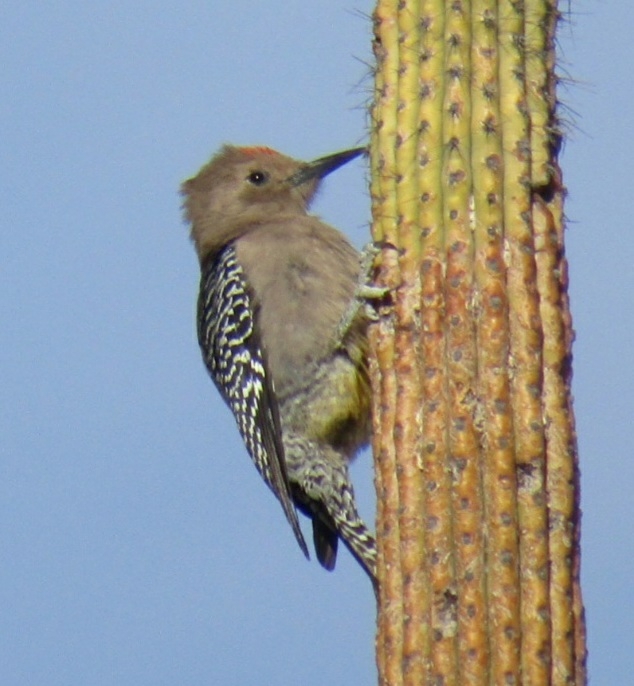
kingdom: Animalia
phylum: Chordata
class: Aves
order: Piciformes
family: Picidae
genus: Melanerpes
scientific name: Melanerpes uropygialis
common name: Gila woodpecker
